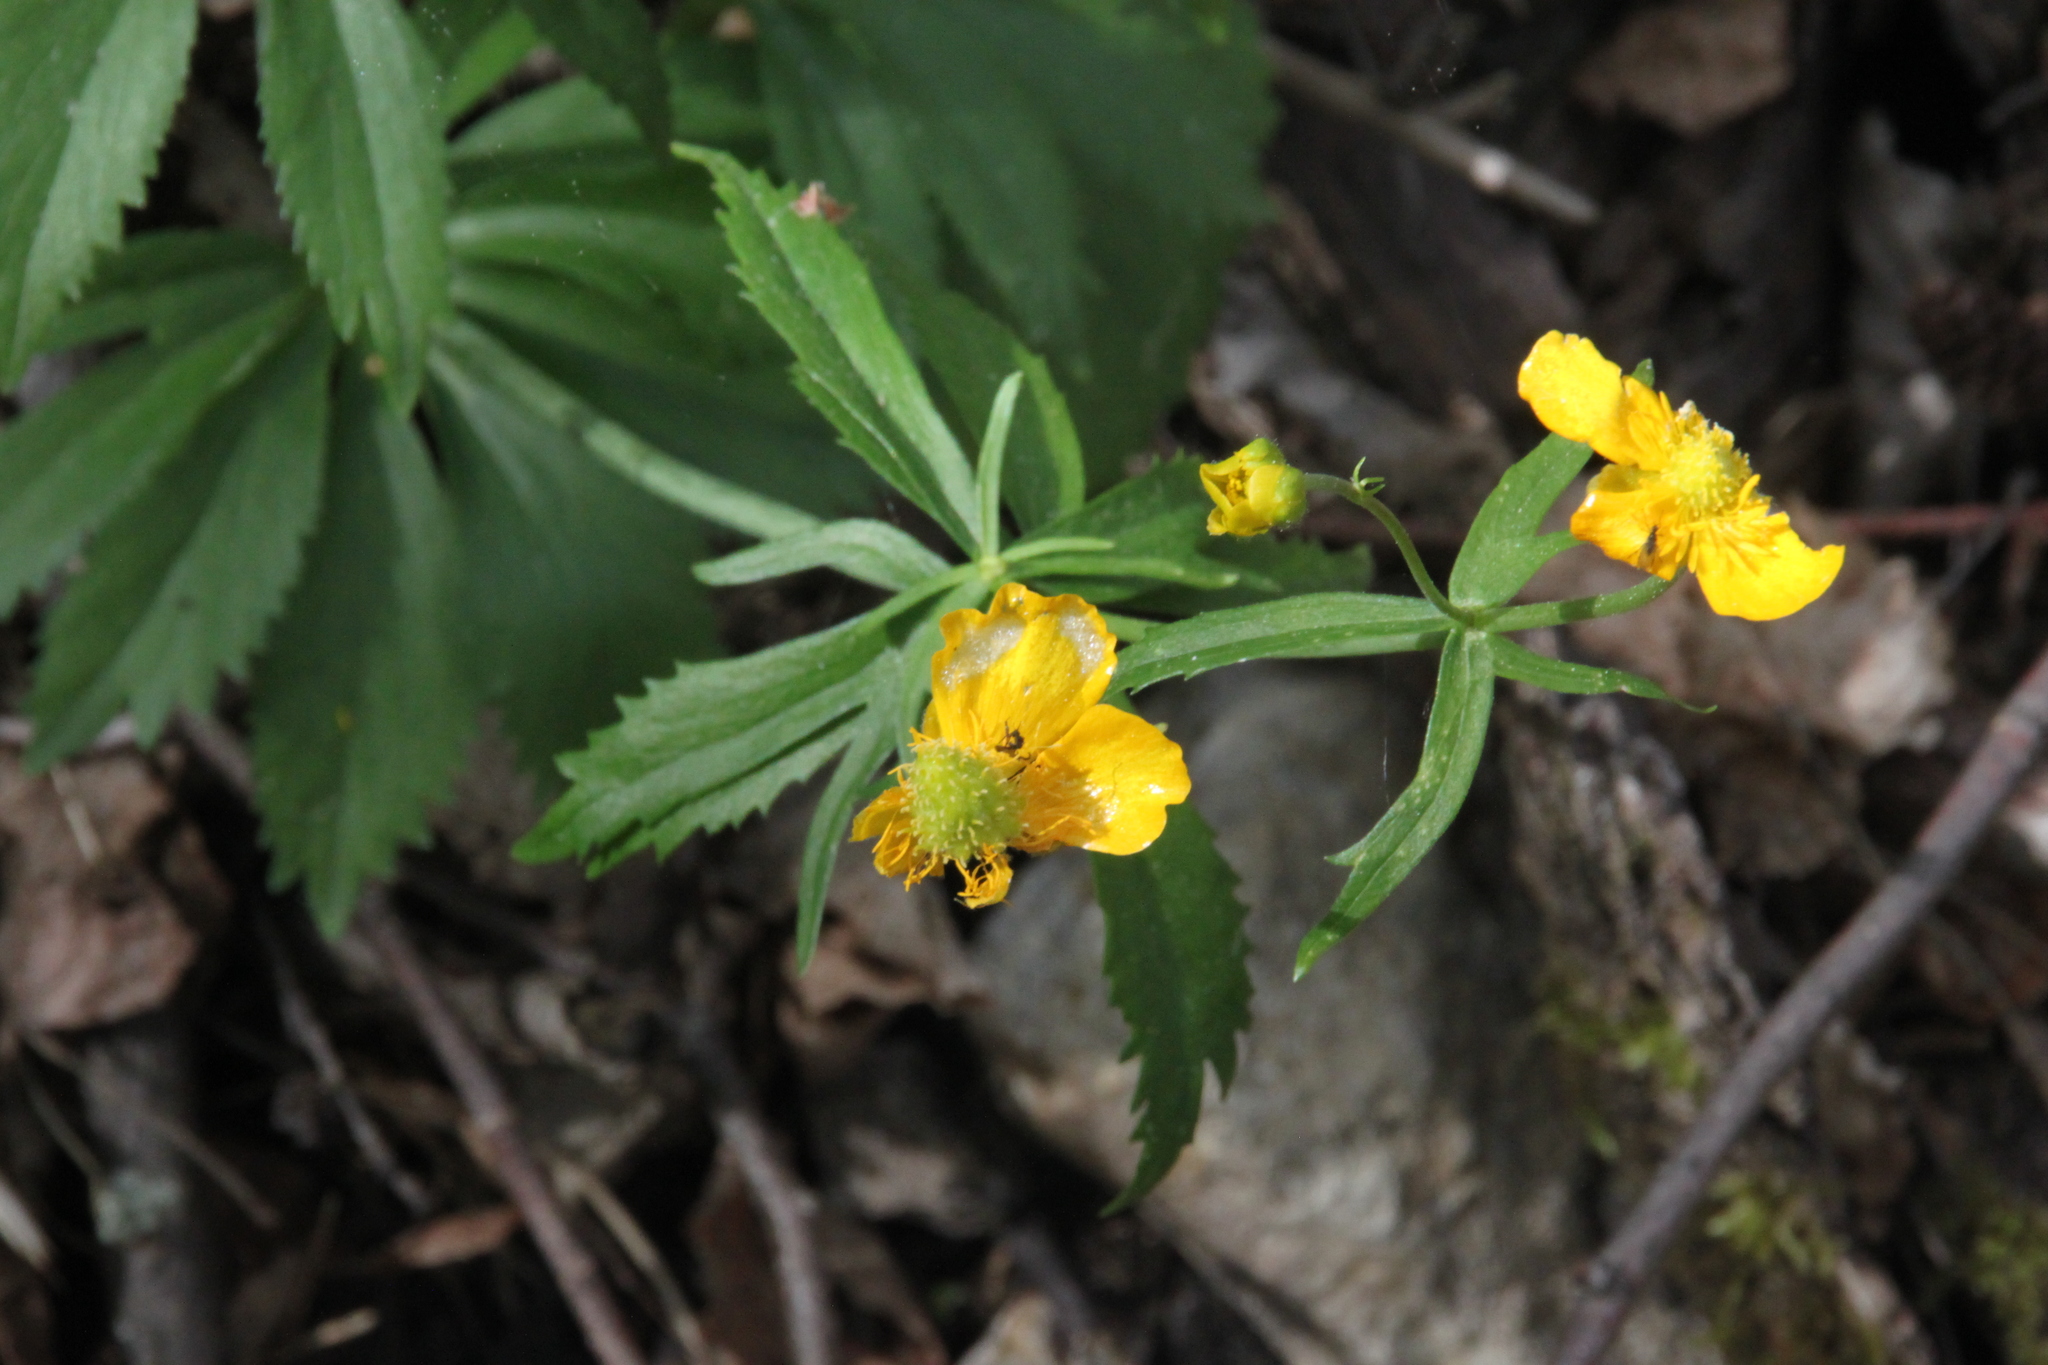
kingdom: Plantae
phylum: Tracheophyta
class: Magnoliopsida
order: Ranunculales
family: Ranunculaceae
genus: Ranunculus
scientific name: Ranunculus cassubicus
